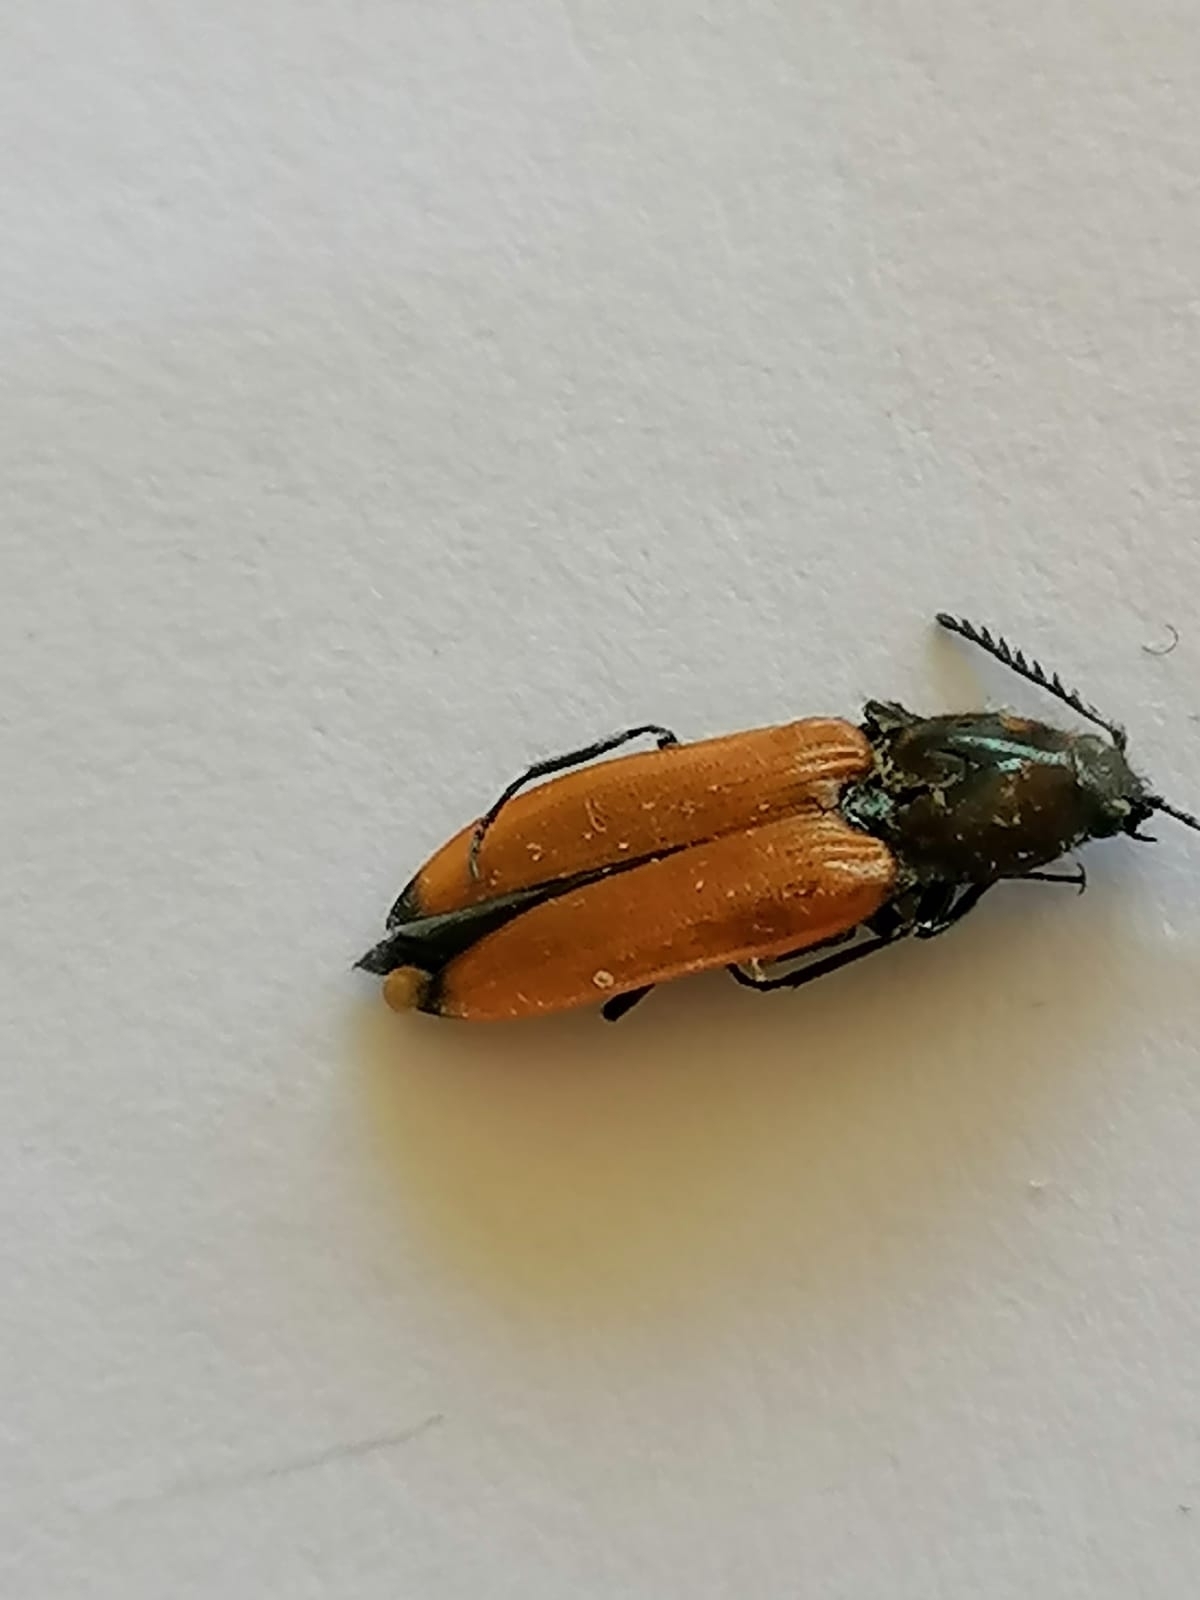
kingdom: Animalia
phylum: Arthropoda
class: Insecta
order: Coleoptera
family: Elateridae
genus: Anostirus
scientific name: Anostirus castaneus
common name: Chestnut coloured click beetle
